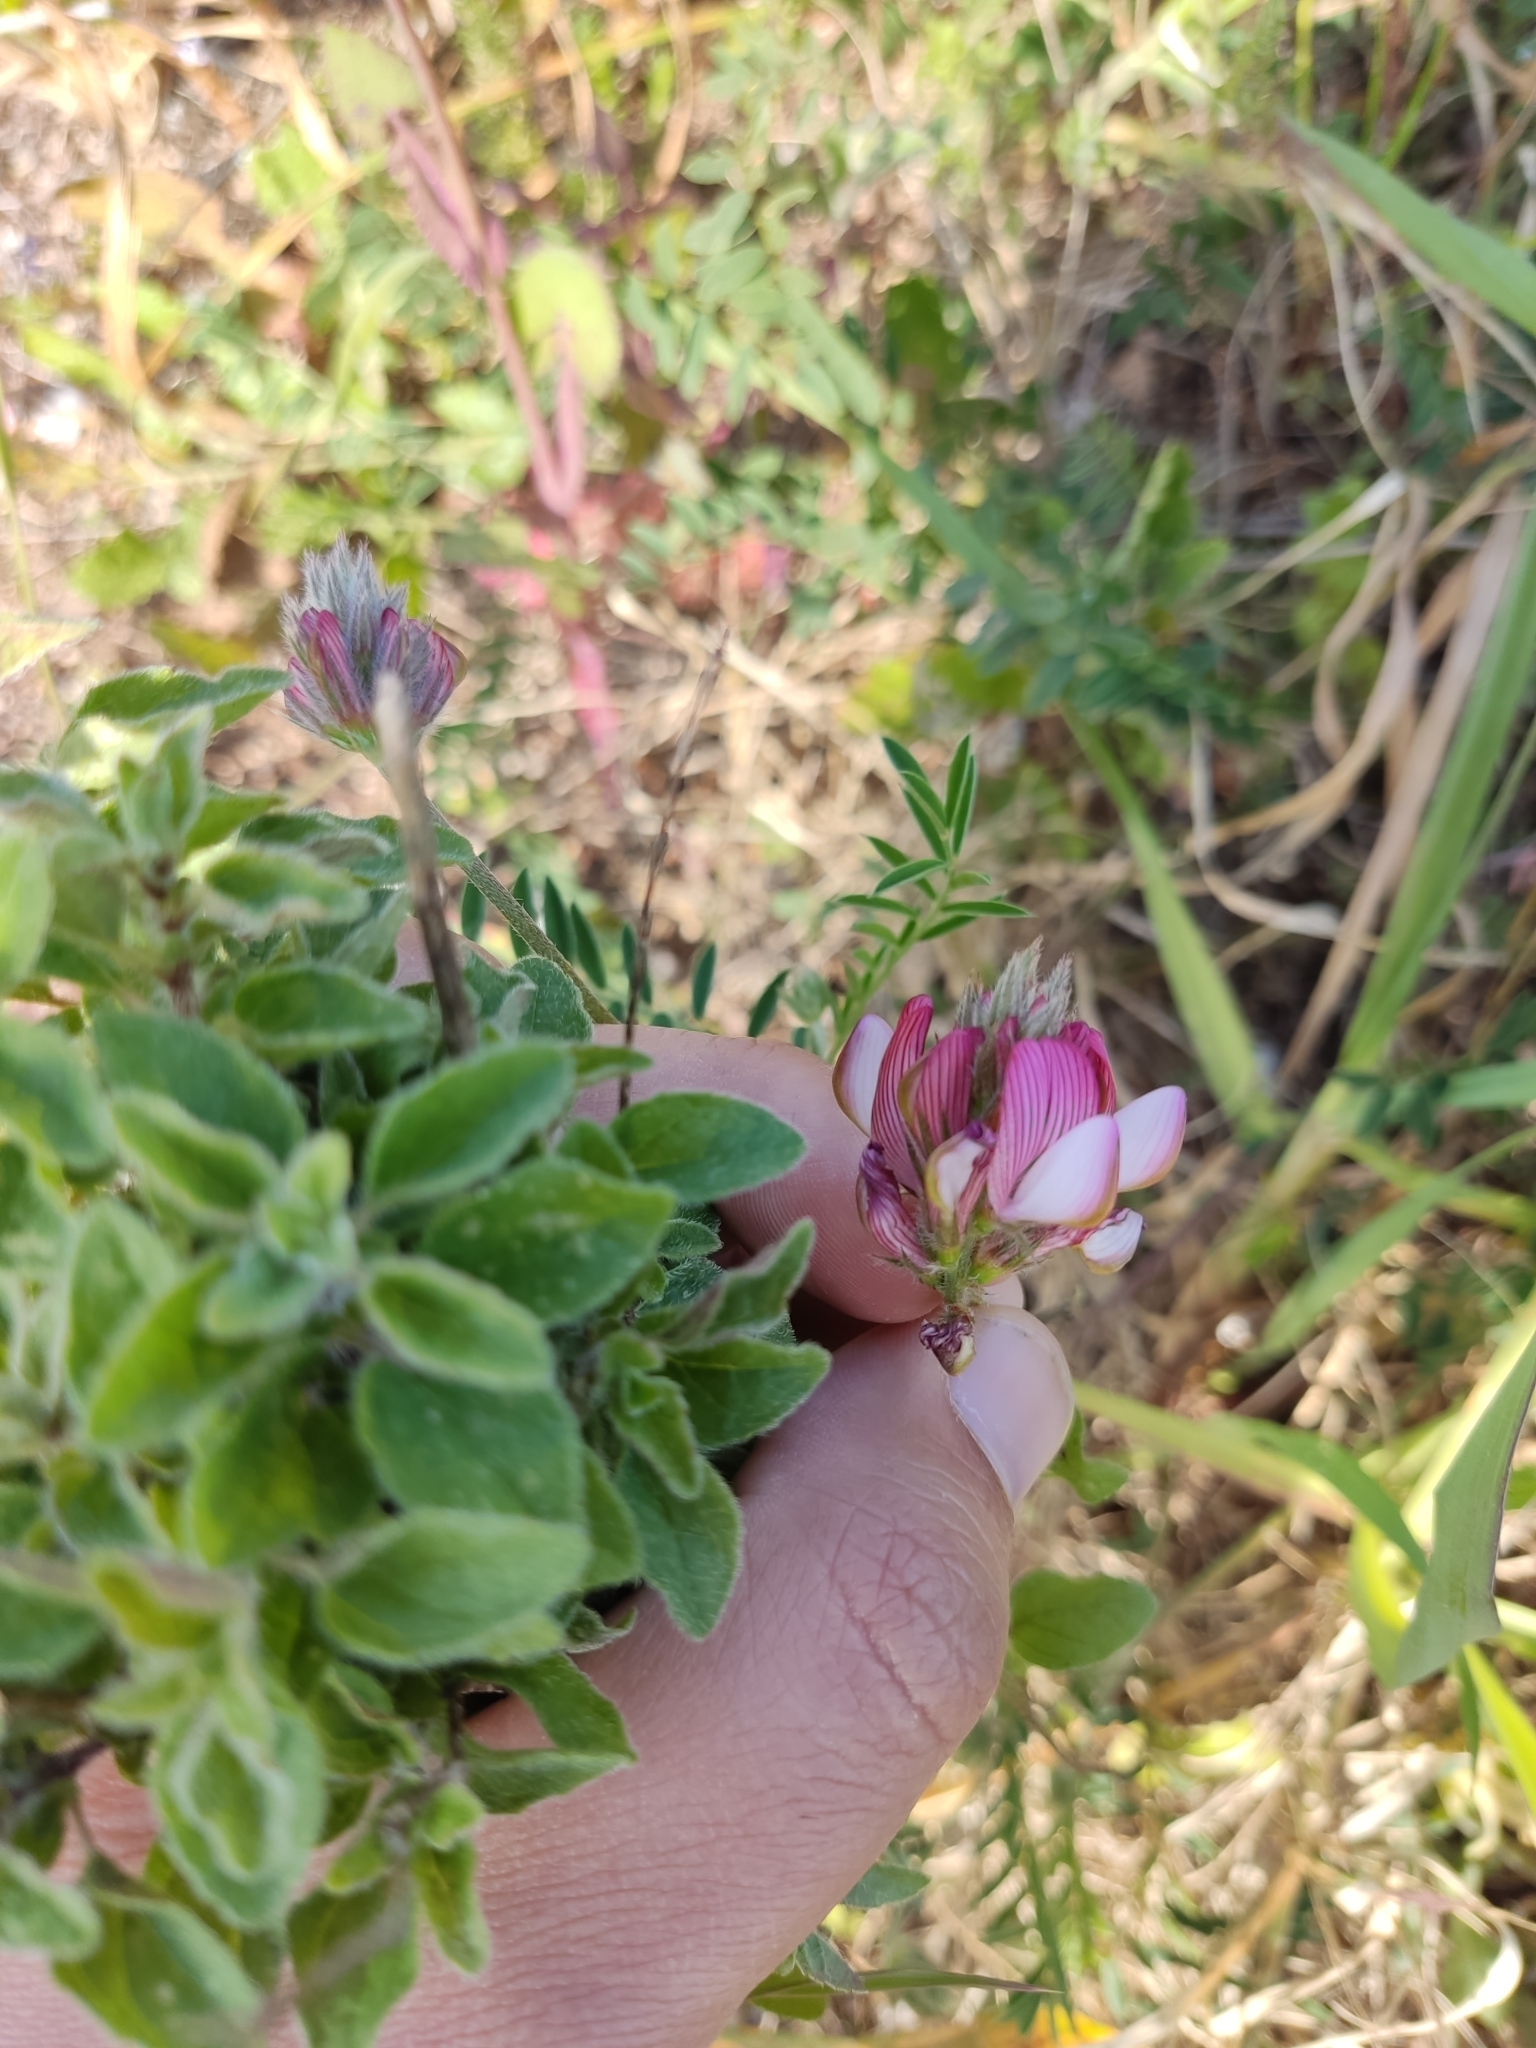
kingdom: Plantae
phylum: Tracheophyta
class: Magnoliopsida
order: Fabales
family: Fabaceae
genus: Onobrychis
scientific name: Onobrychis humilis
